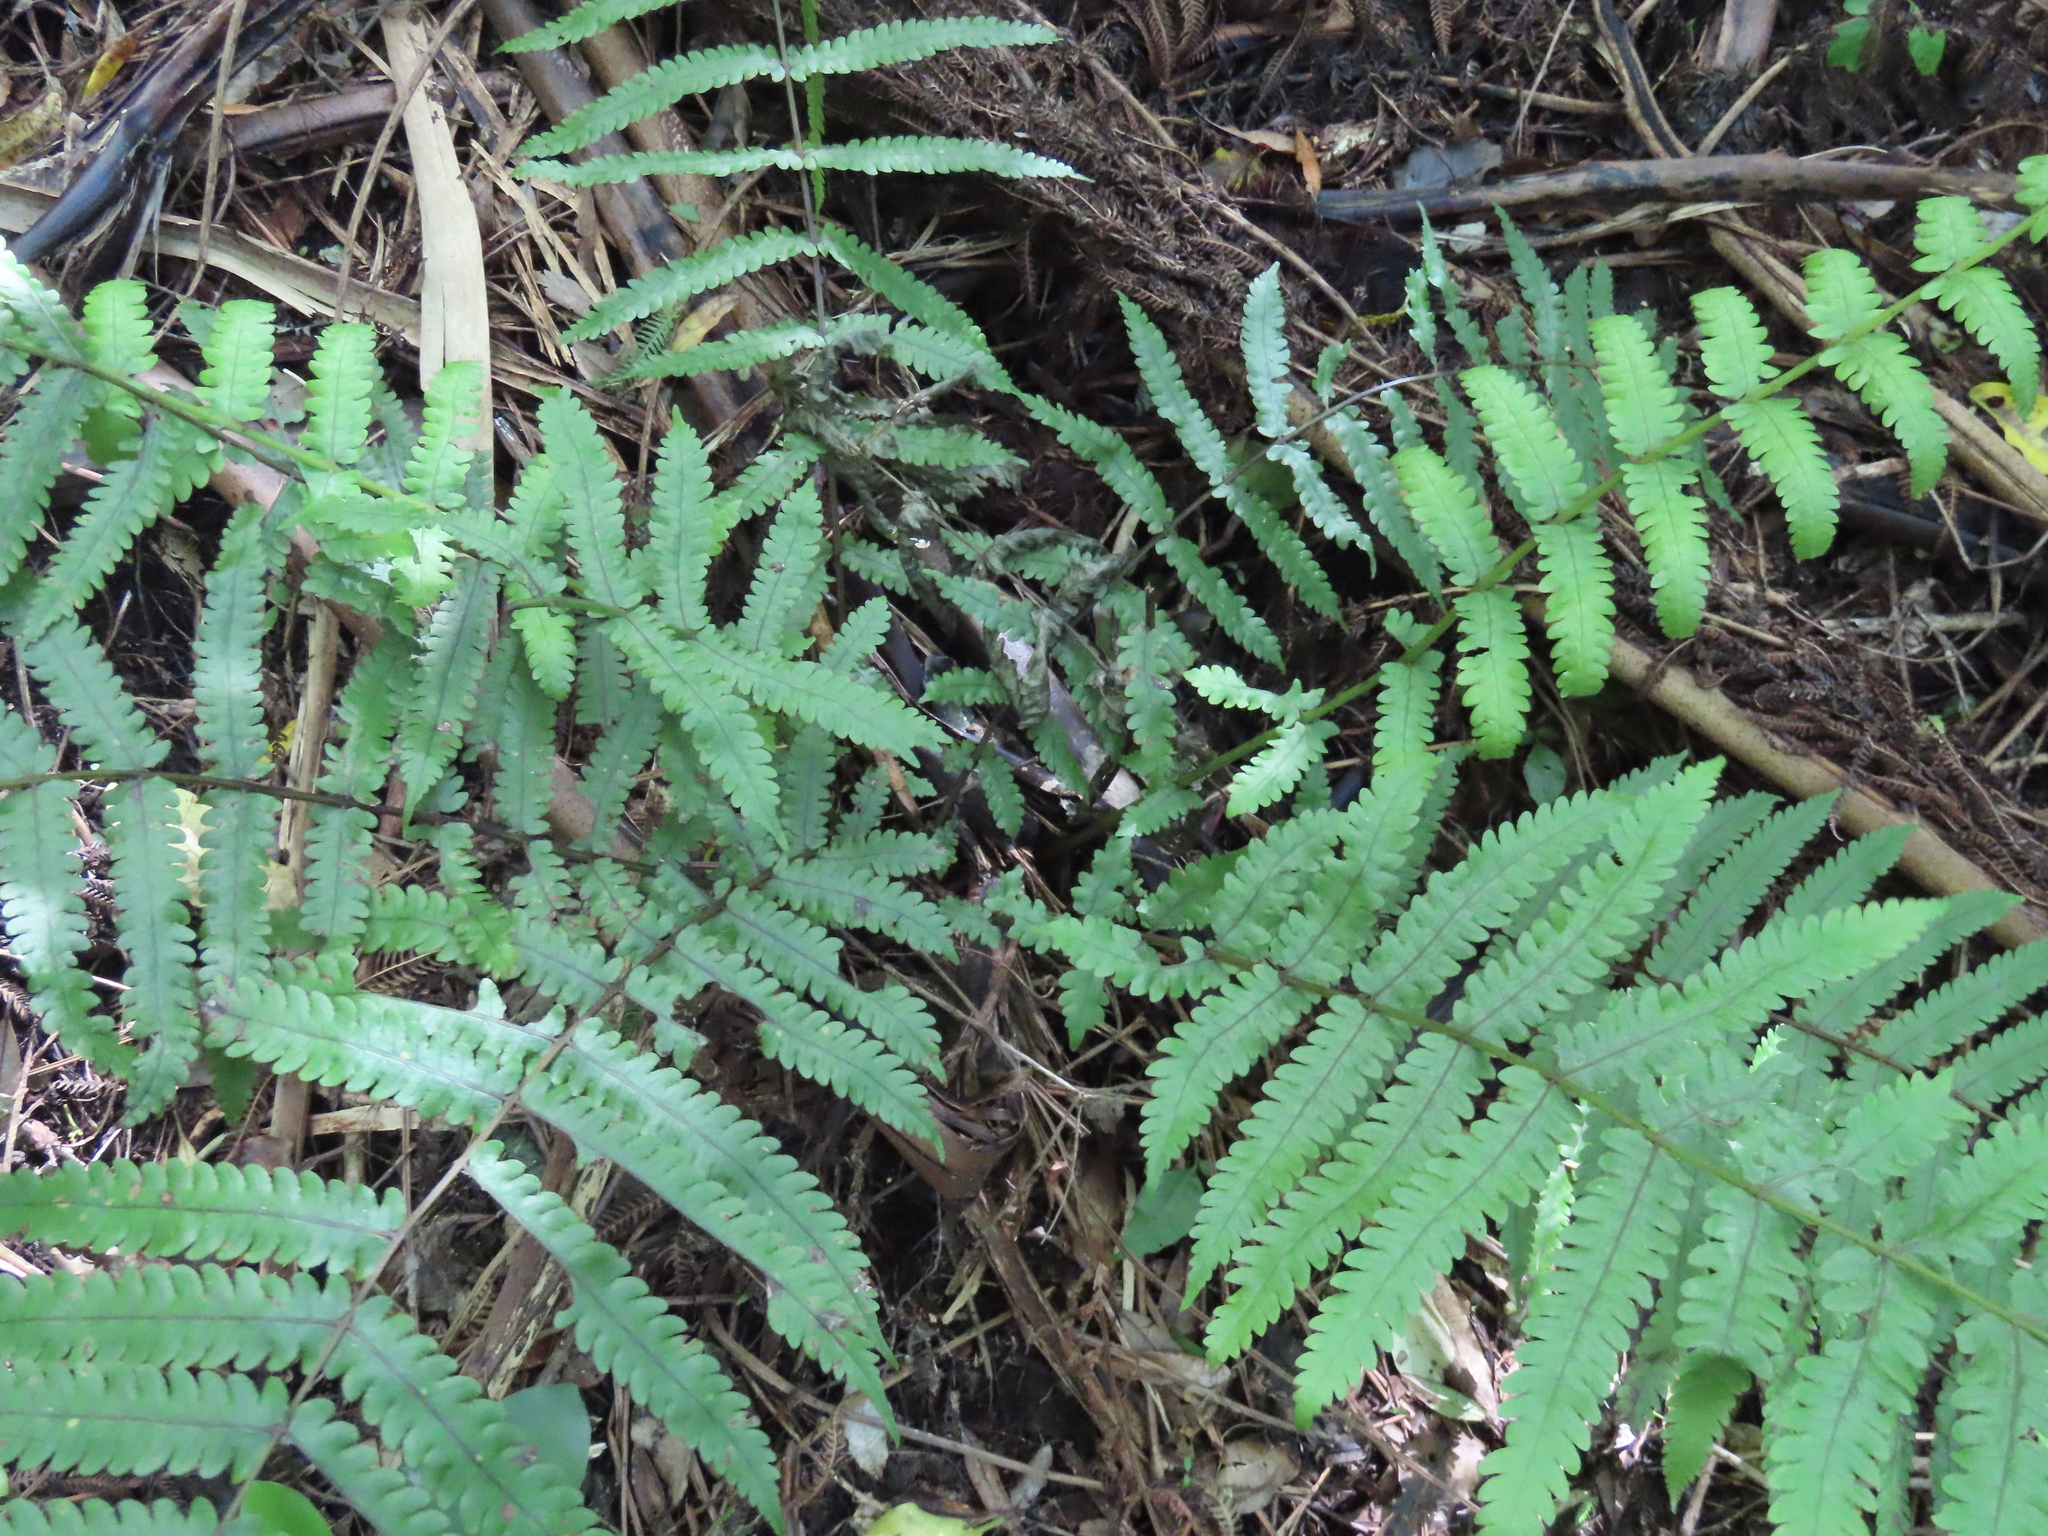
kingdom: Plantae
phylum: Tracheophyta
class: Polypodiopsida
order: Polypodiales
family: Thelypteridaceae
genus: Pakau
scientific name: Pakau pennigera
